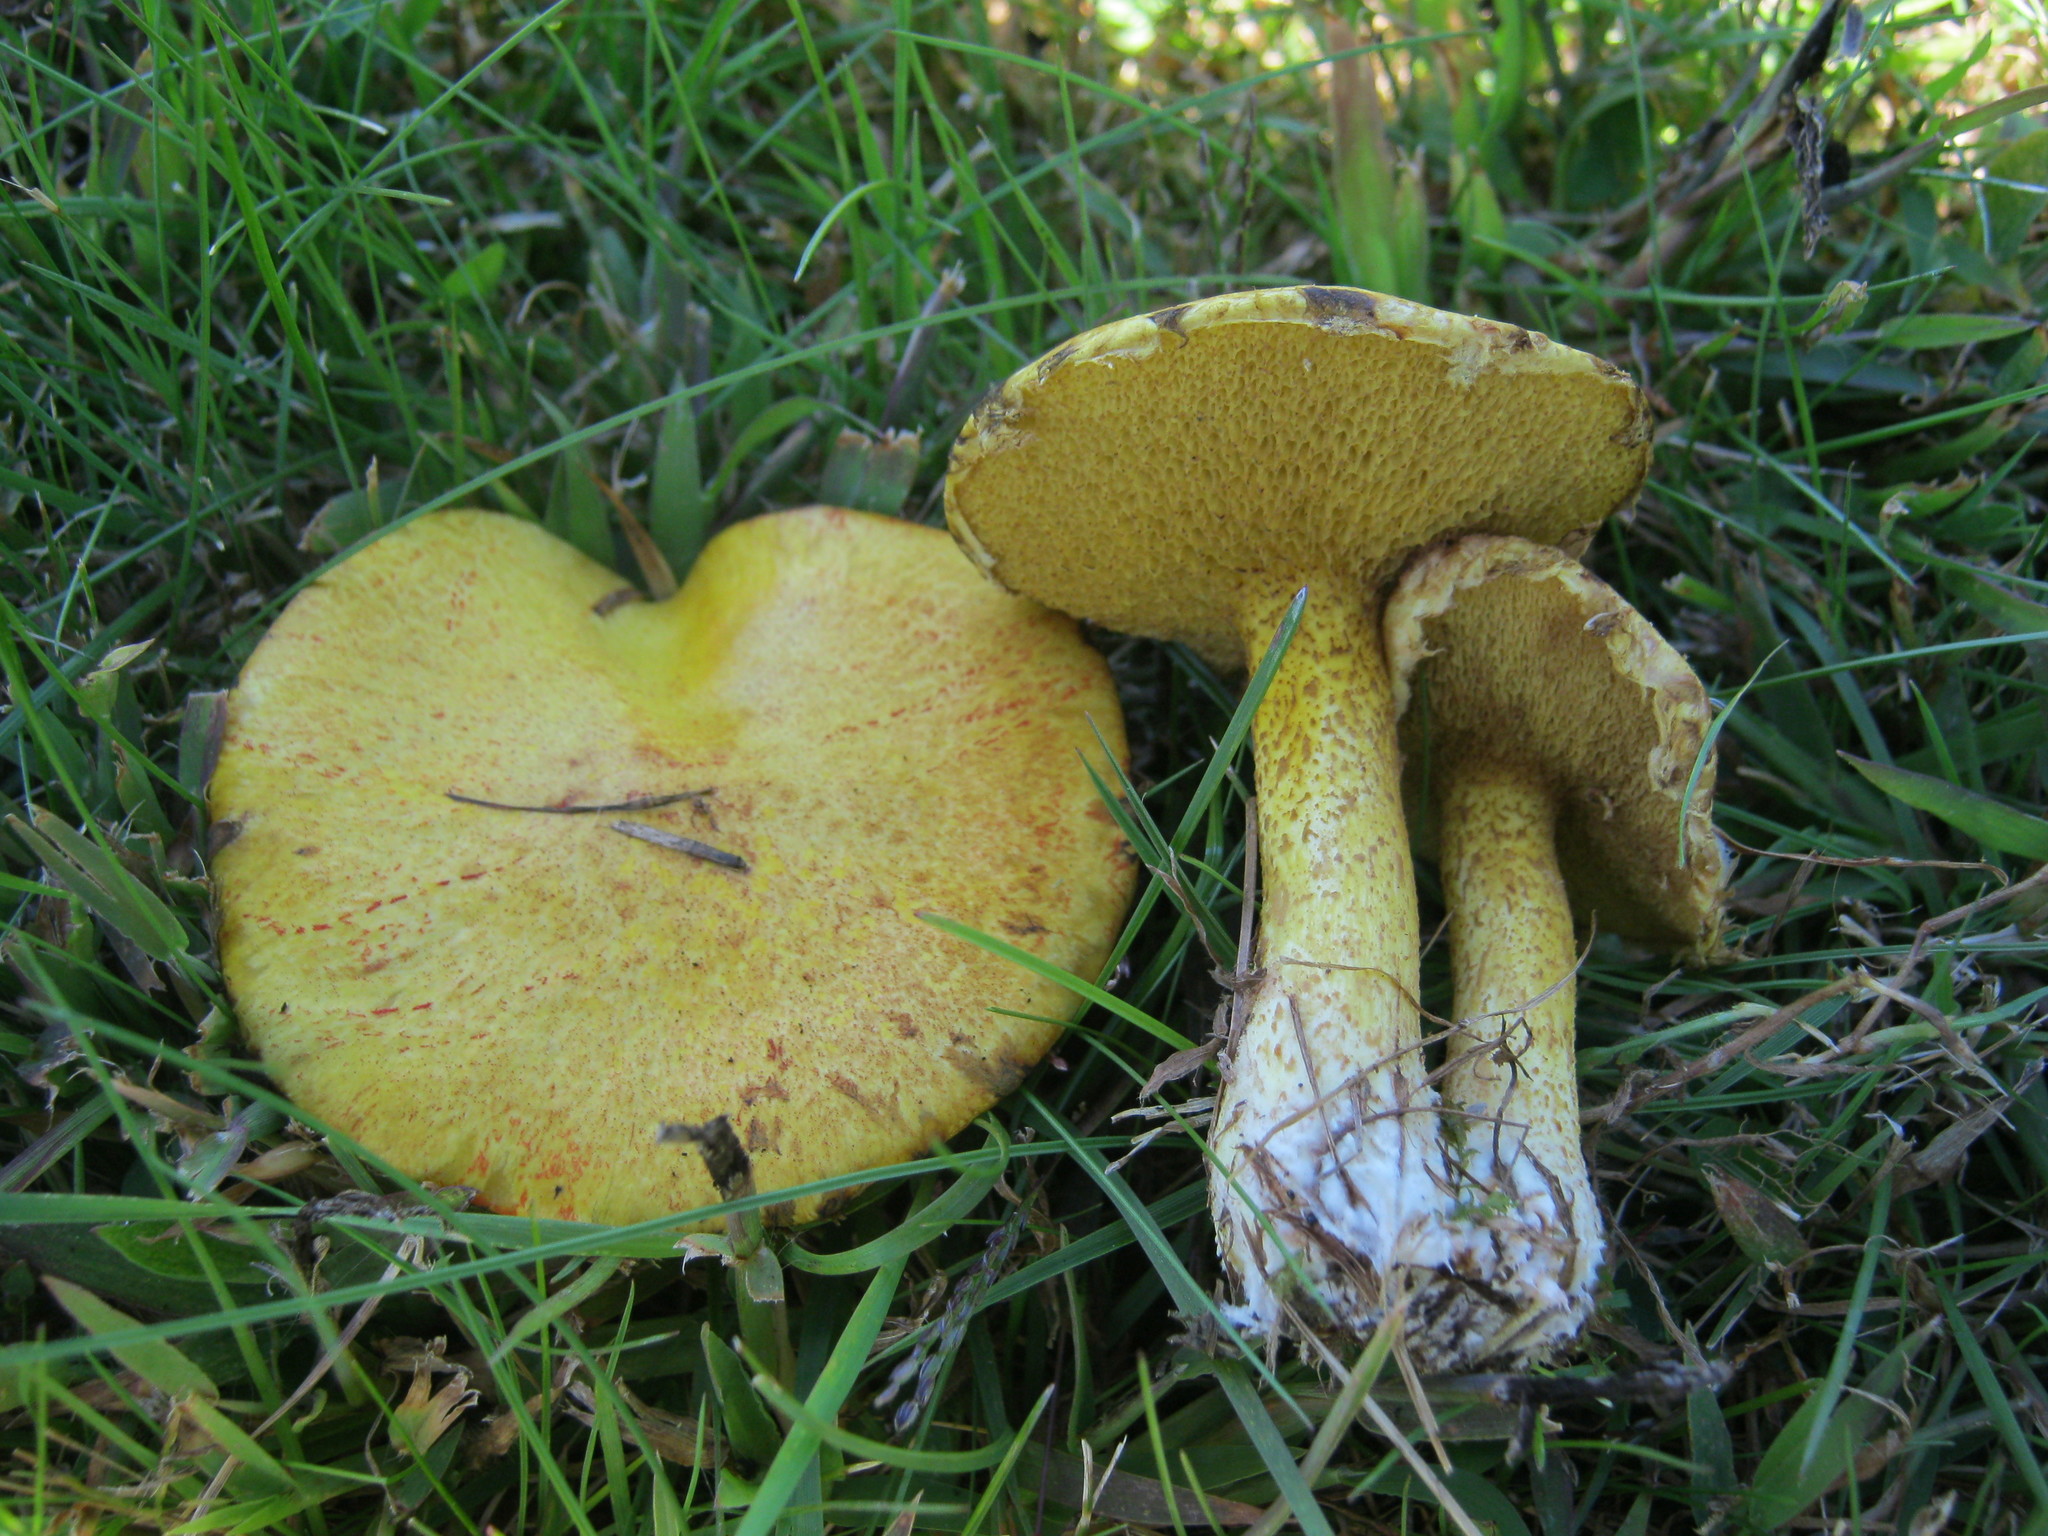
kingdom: Fungi
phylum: Basidiomycota
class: Agaricomycetes
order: Boletales
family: Suillaceae
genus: Suillus
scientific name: Suillus americanus
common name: Chicken fat mushroom
